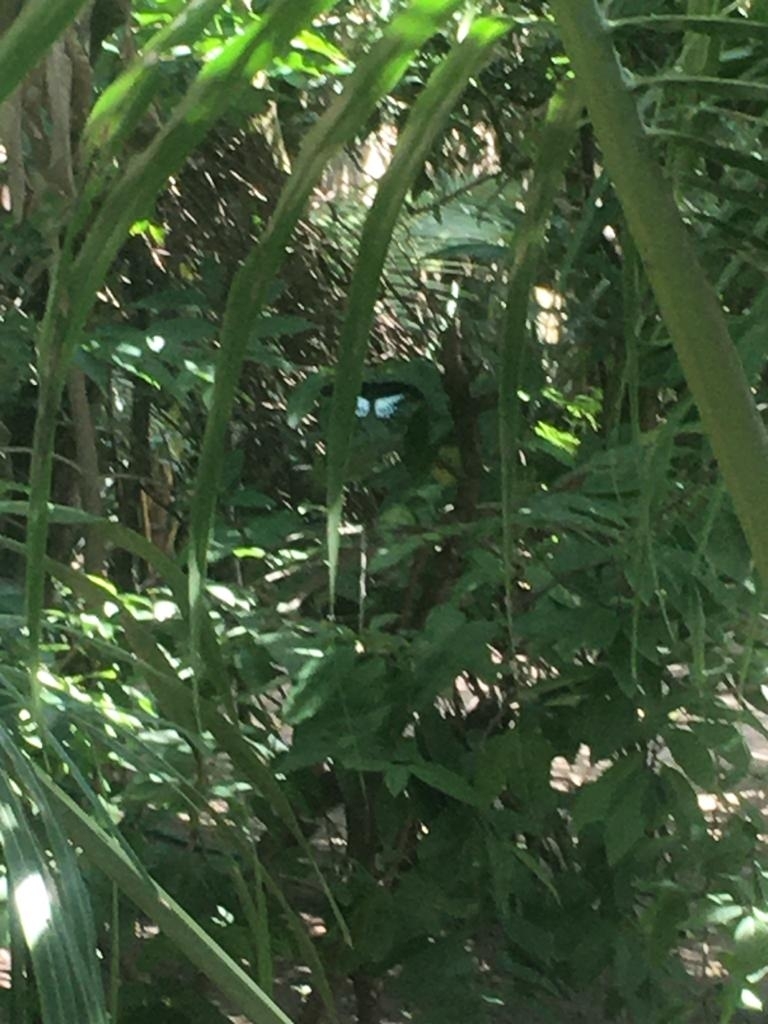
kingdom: Animalia
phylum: Arthropoda
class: Insecta
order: Lepidoptera
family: Papilionidae
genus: Papilio
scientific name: Papilio memnon
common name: Great mormon
